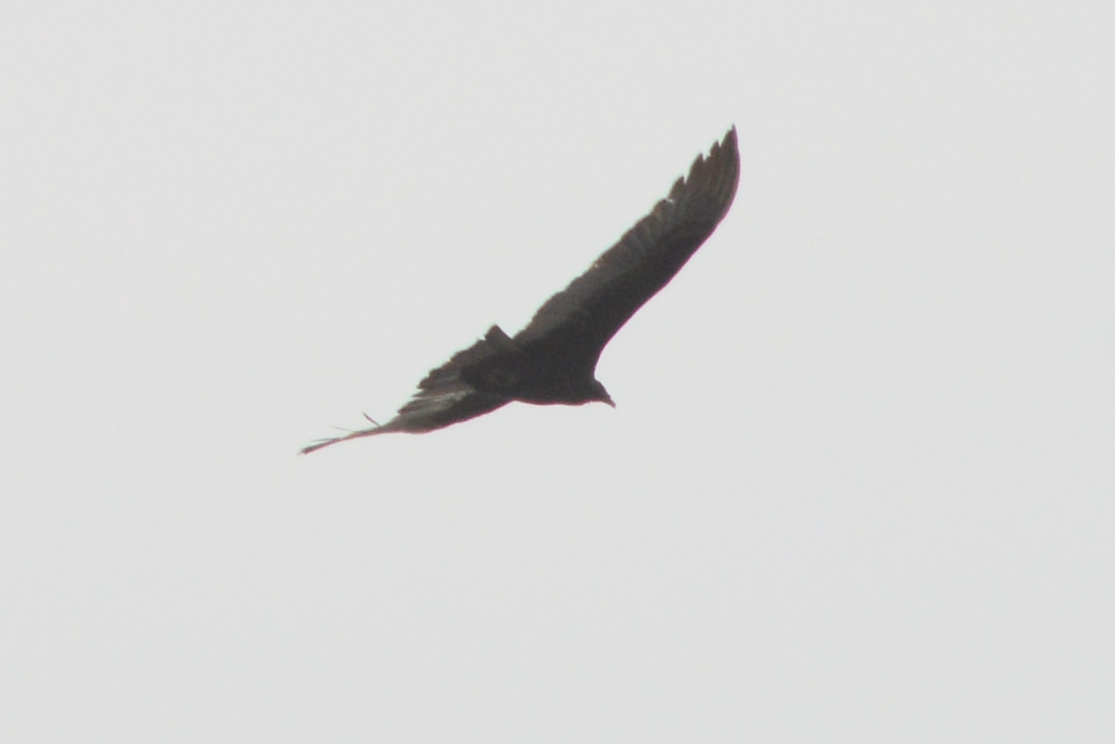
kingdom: Animalia
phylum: Chordata
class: Aves
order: Accipitriformes
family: Cathartidae
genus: Cathartes
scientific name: Cathartes aura
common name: Turkey vulture
